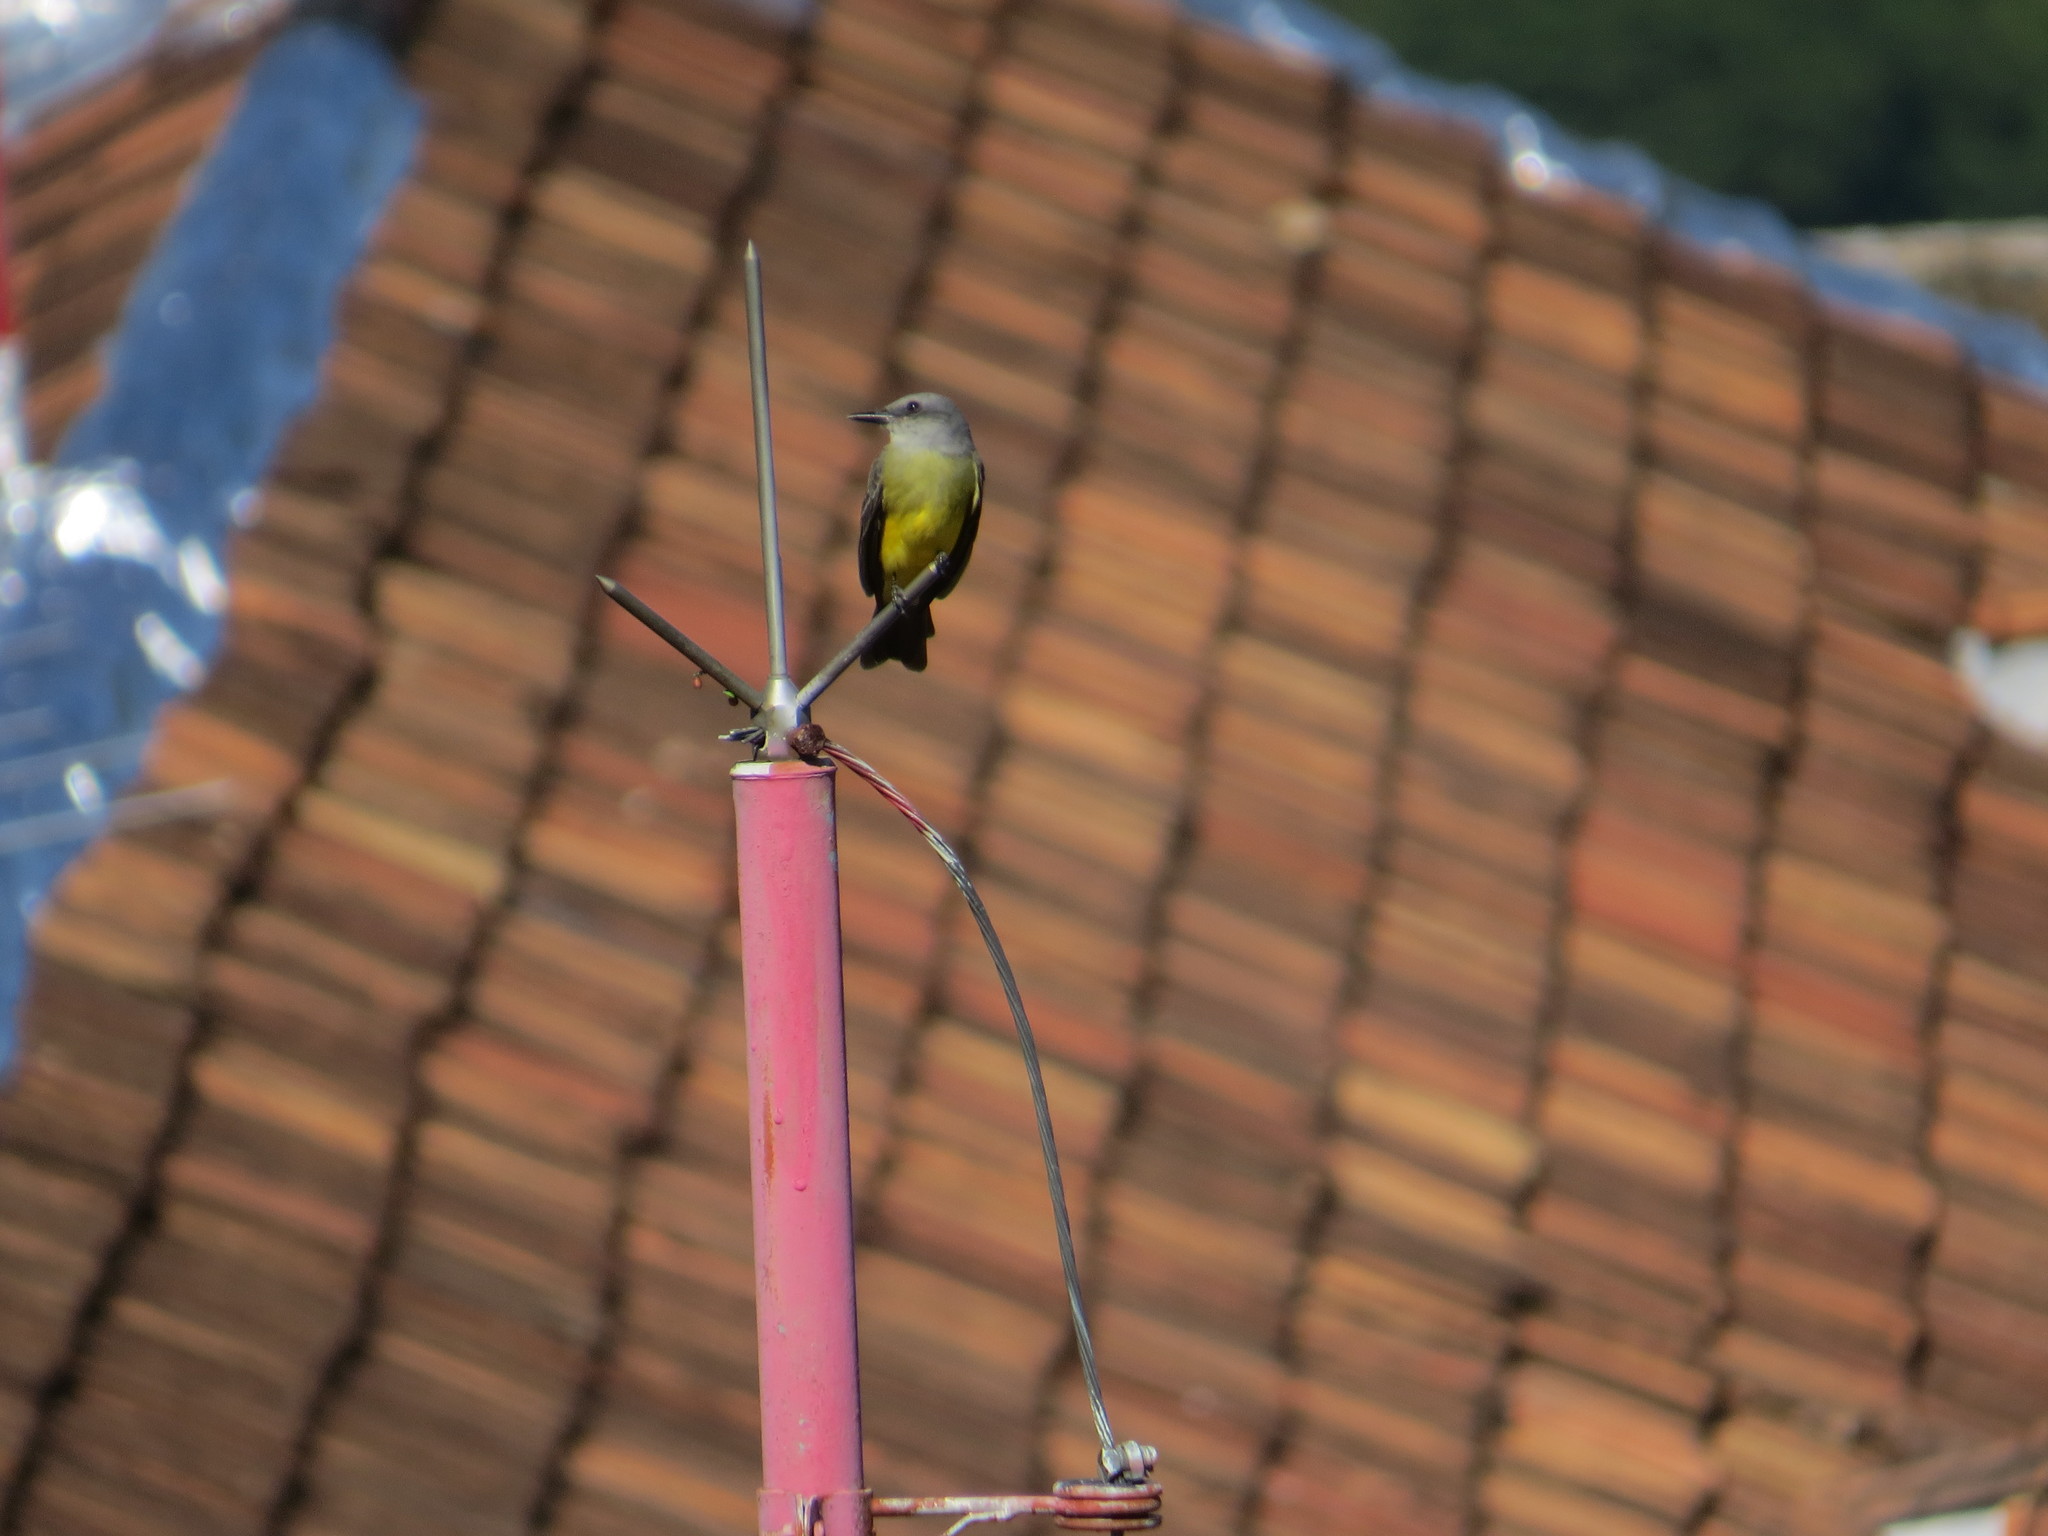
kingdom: Animalia
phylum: Chordata
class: Aves
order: Passeriformes
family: Tyrannidae
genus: Tyrannus
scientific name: Tyrannus melancholicus
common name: Tropical kingbird
